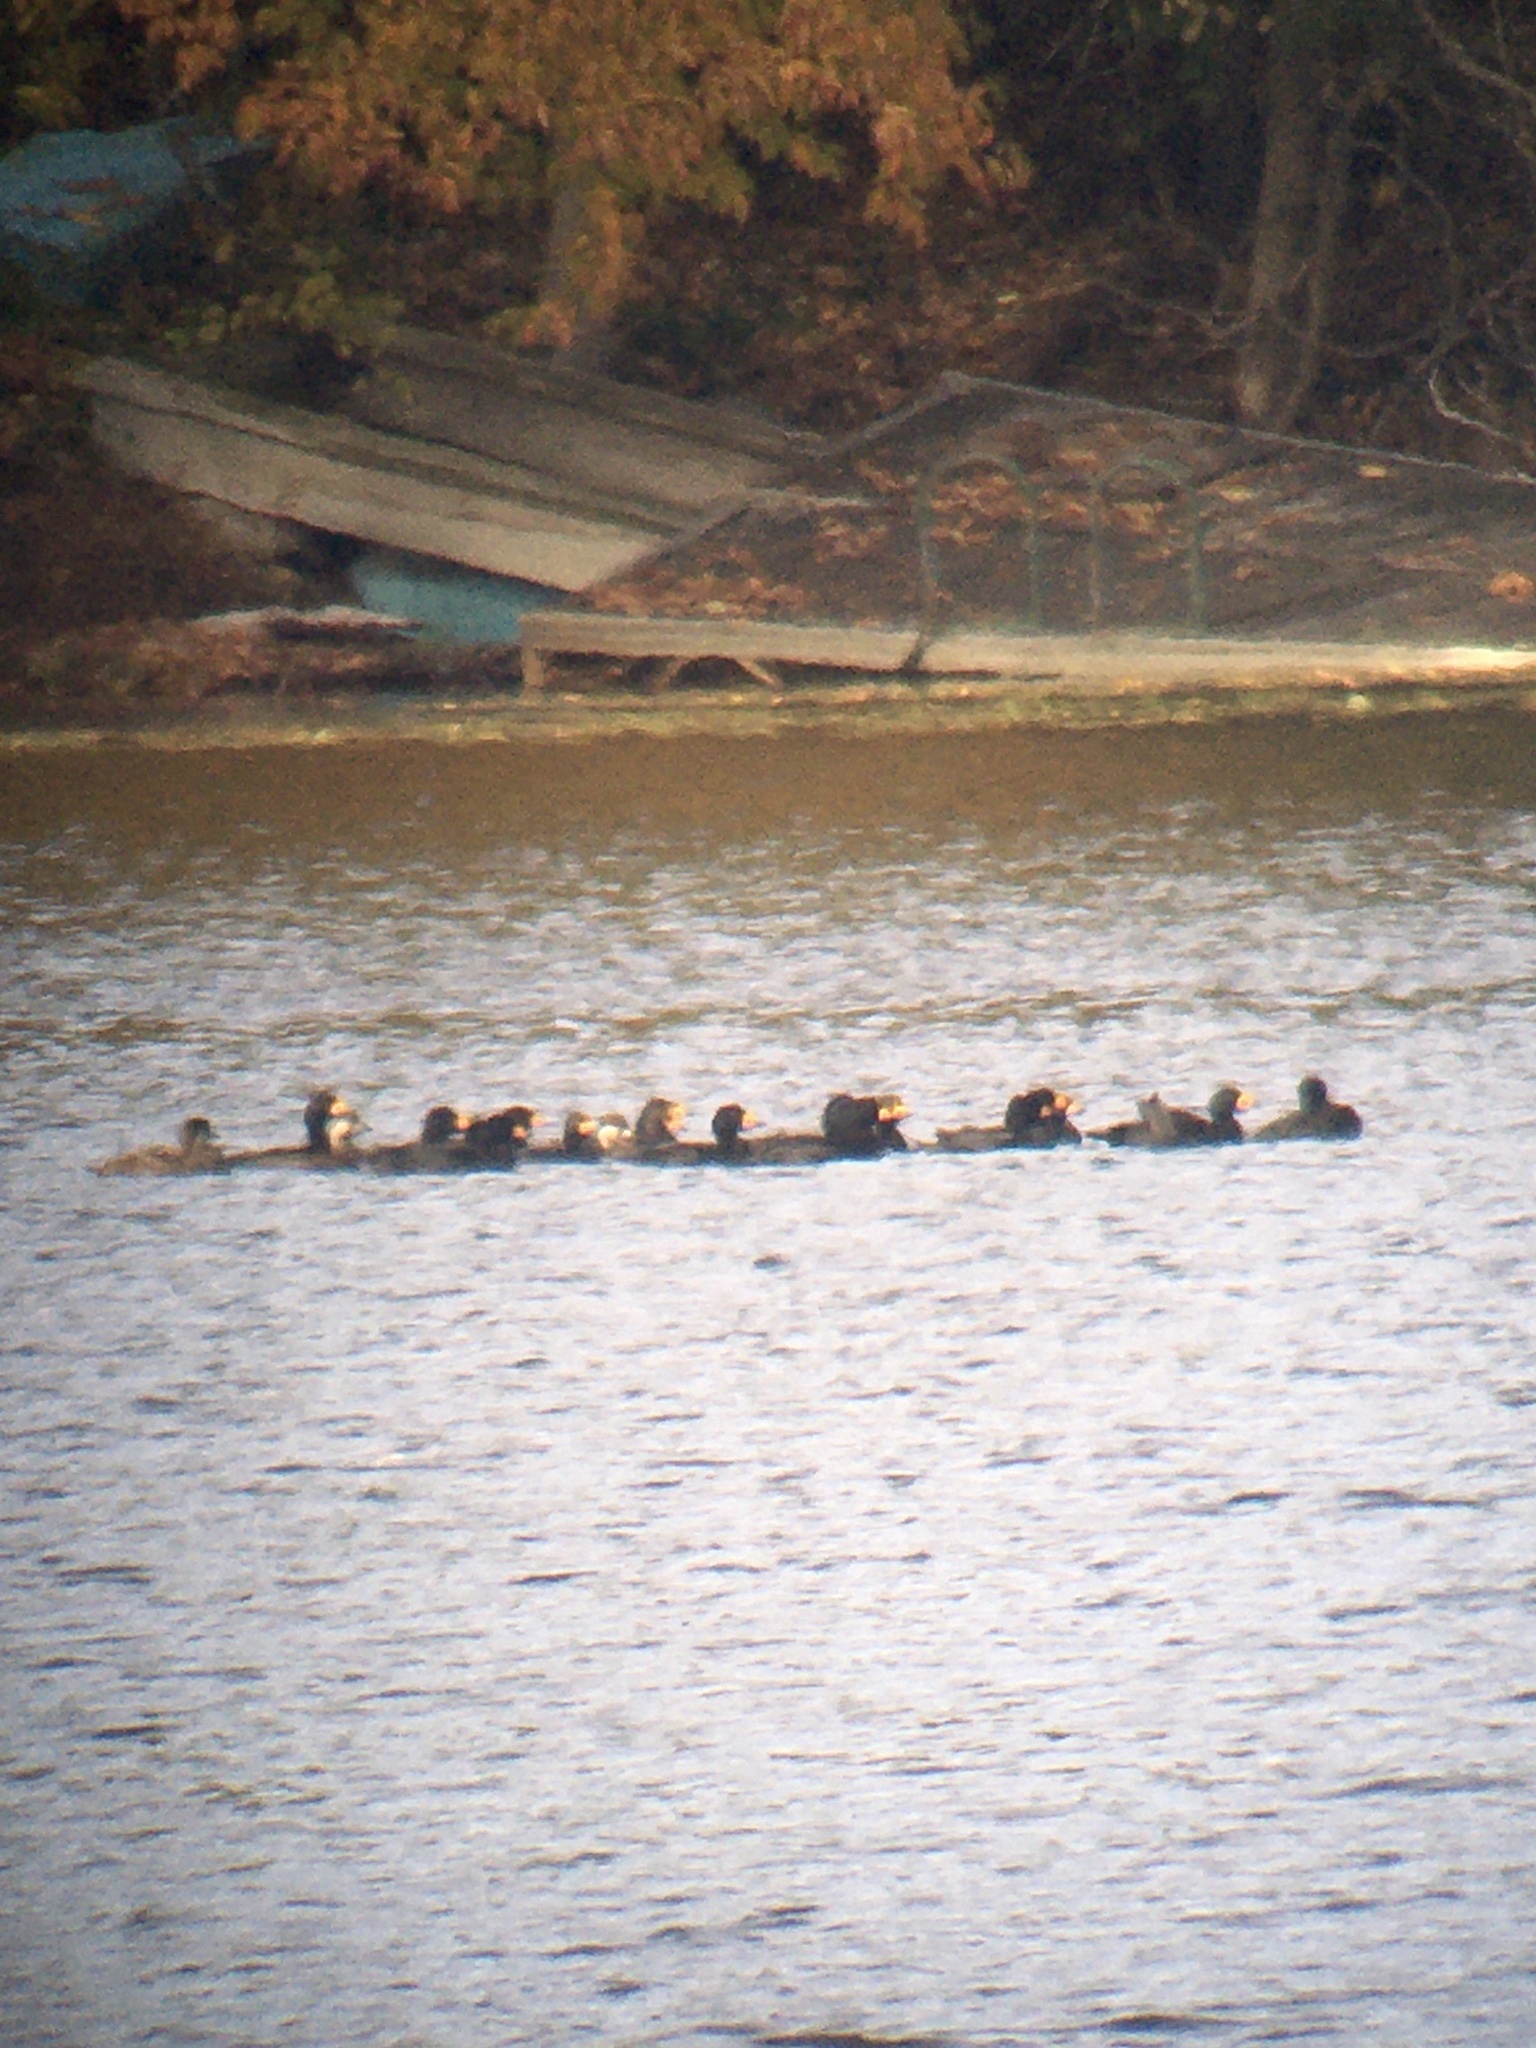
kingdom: Animalia
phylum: Chordata
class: Aves
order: Anseriformes
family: Anatidae
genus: Melanitta
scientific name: Melanitta americana
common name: Black scoter
